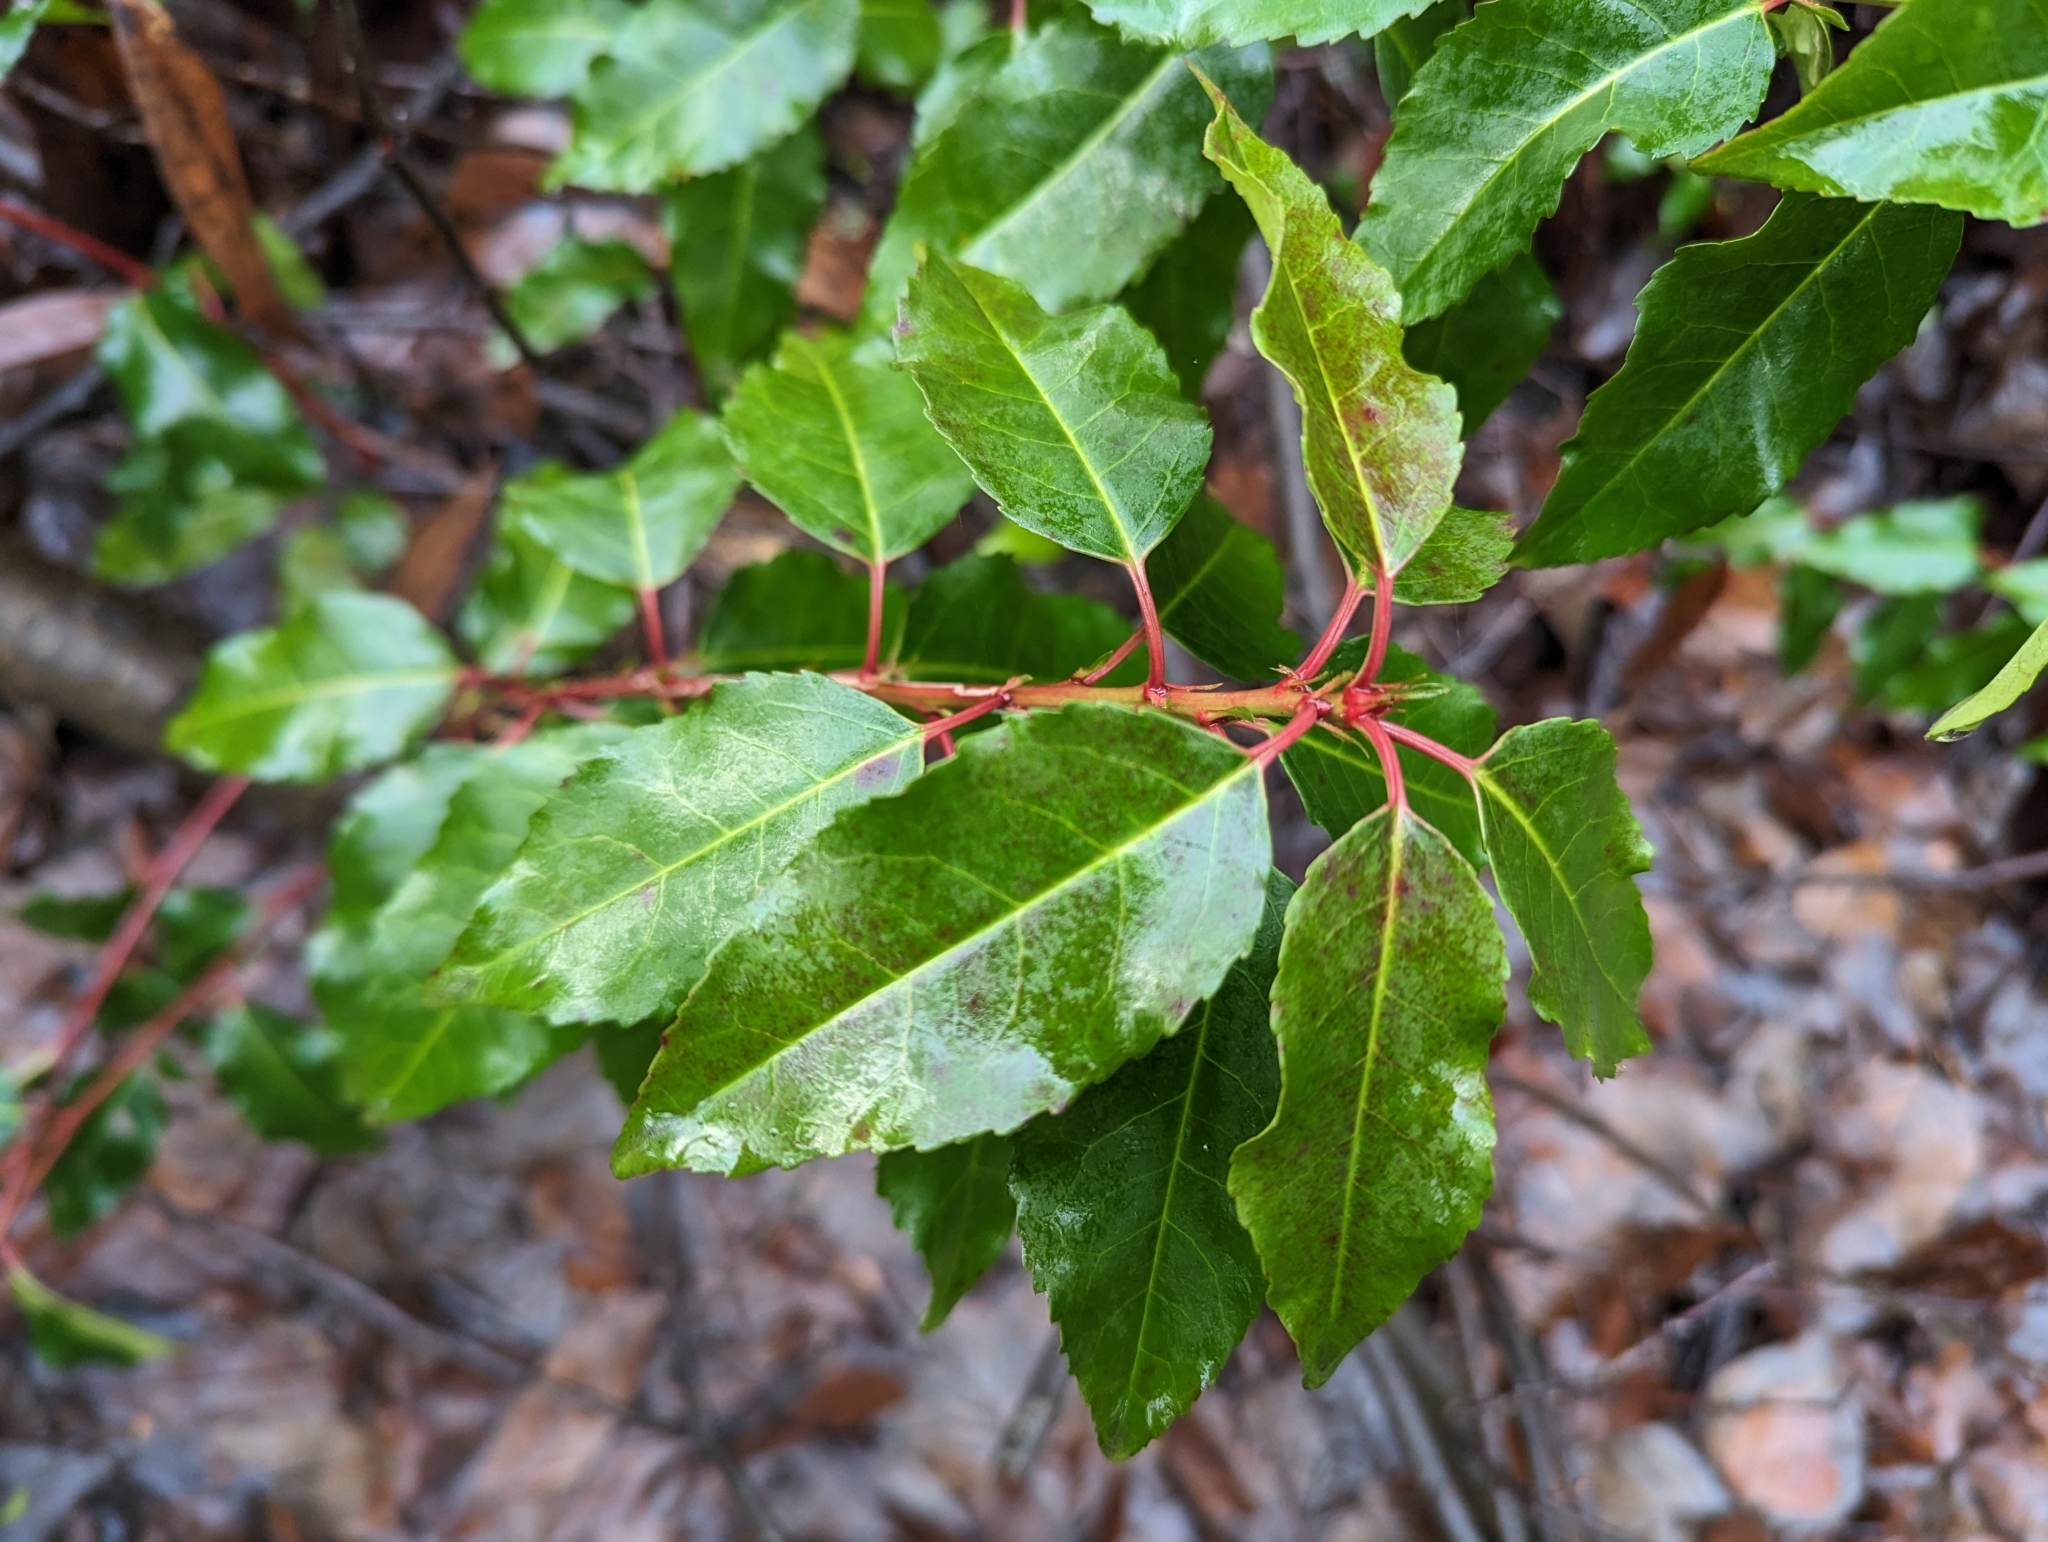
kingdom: Plantae
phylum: Tracheophyta
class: Magnoliopsida
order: Rosales
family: Rosaceae
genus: Prunus
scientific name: Prunus lusitanica
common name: Portugal laurel
